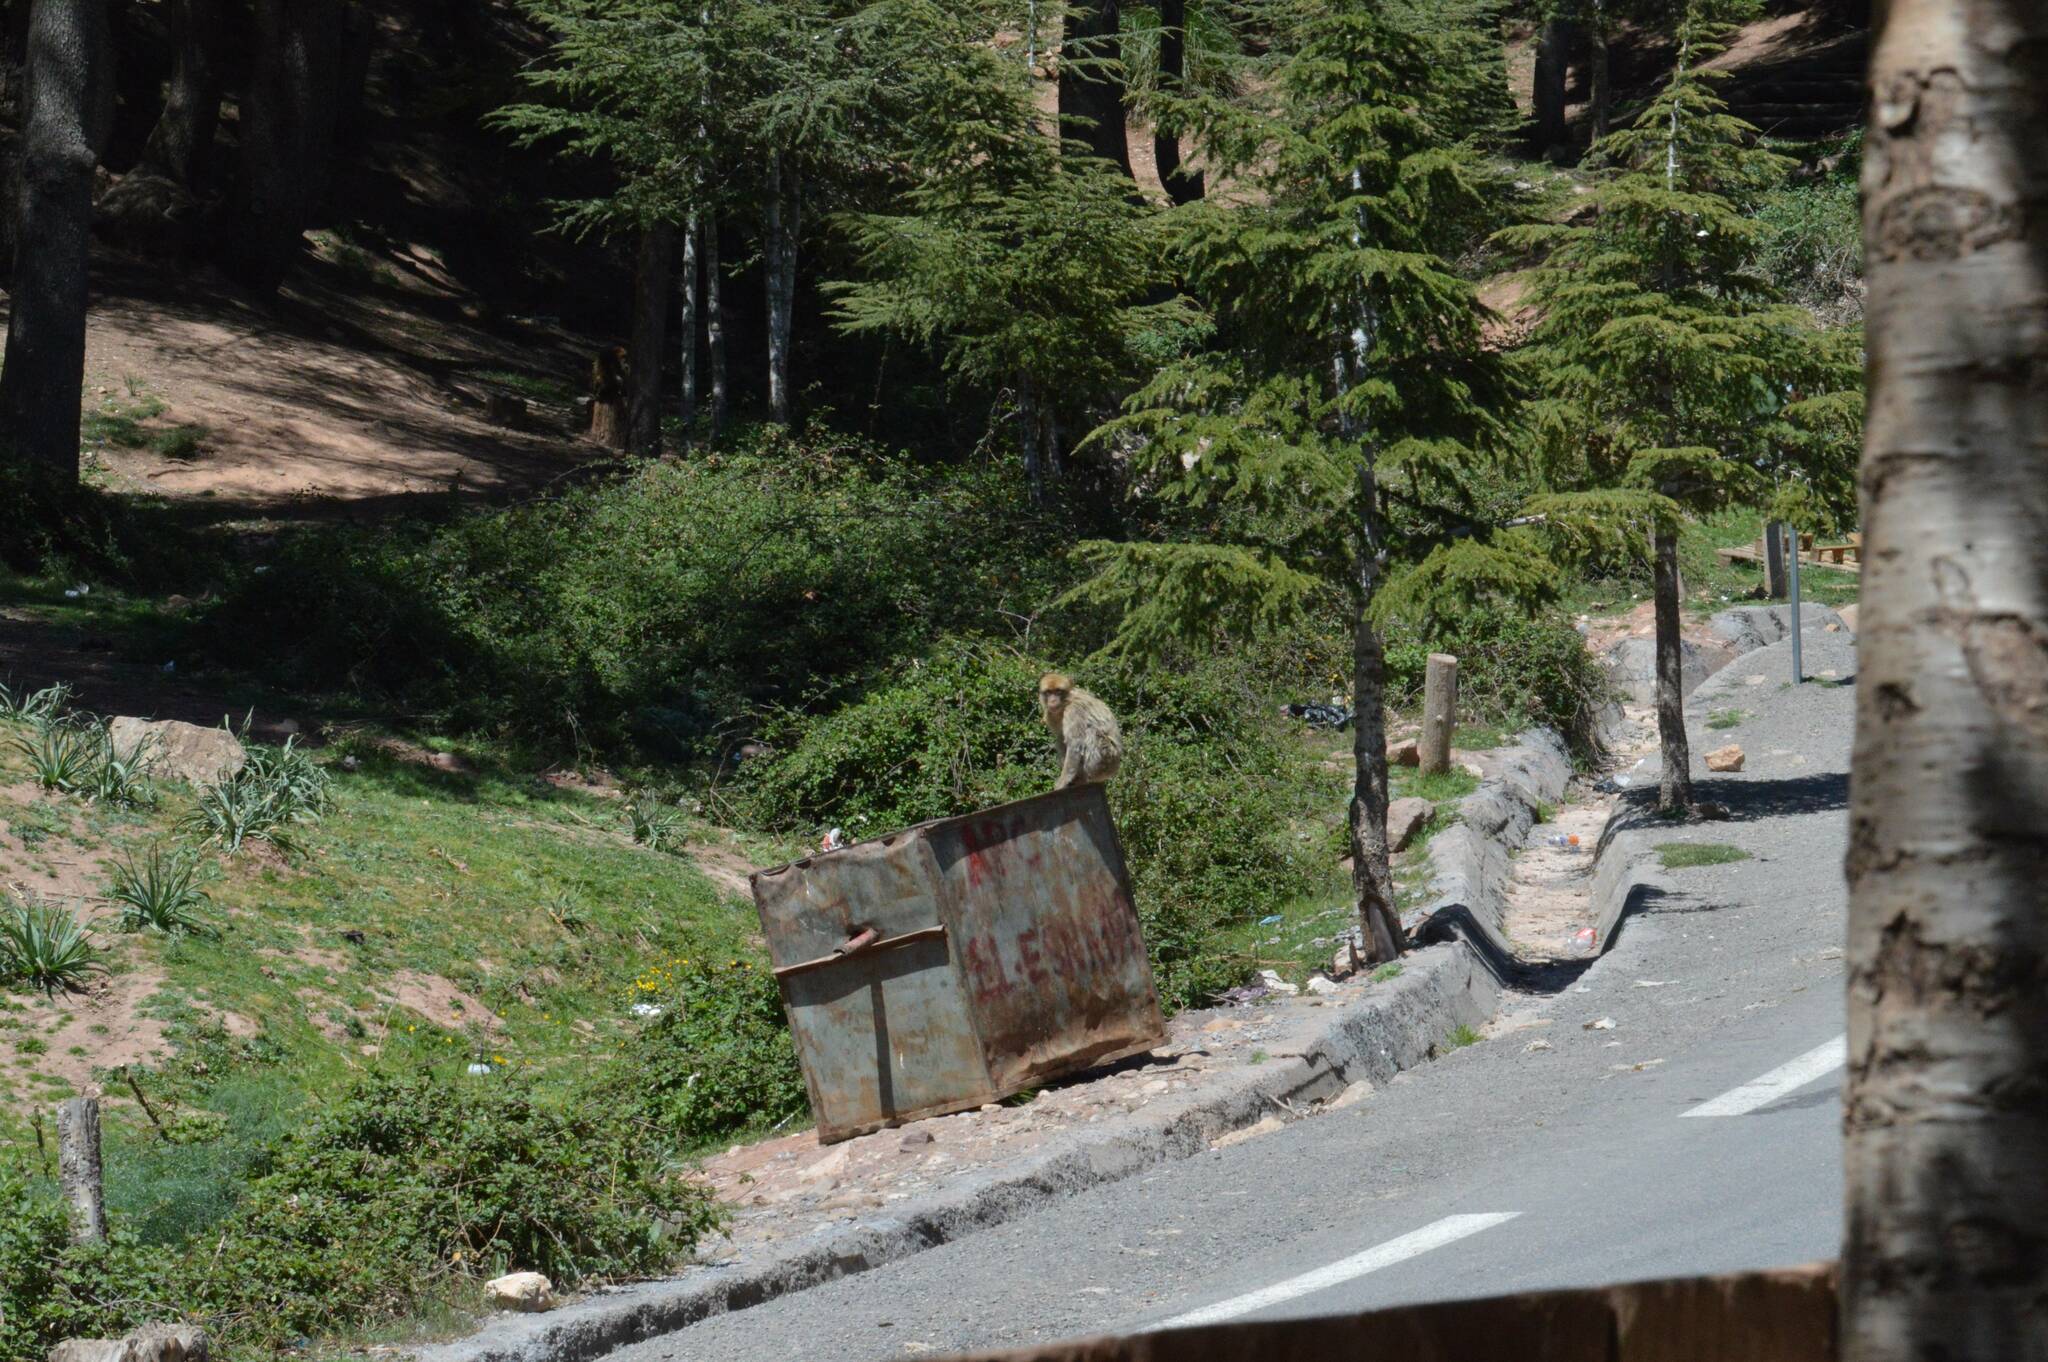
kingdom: Animalia
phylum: Chordata
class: Mammalia
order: Primates
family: Cercopithecidae
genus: Macaca
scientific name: Macaca sylvanus
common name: Barbary macaque
